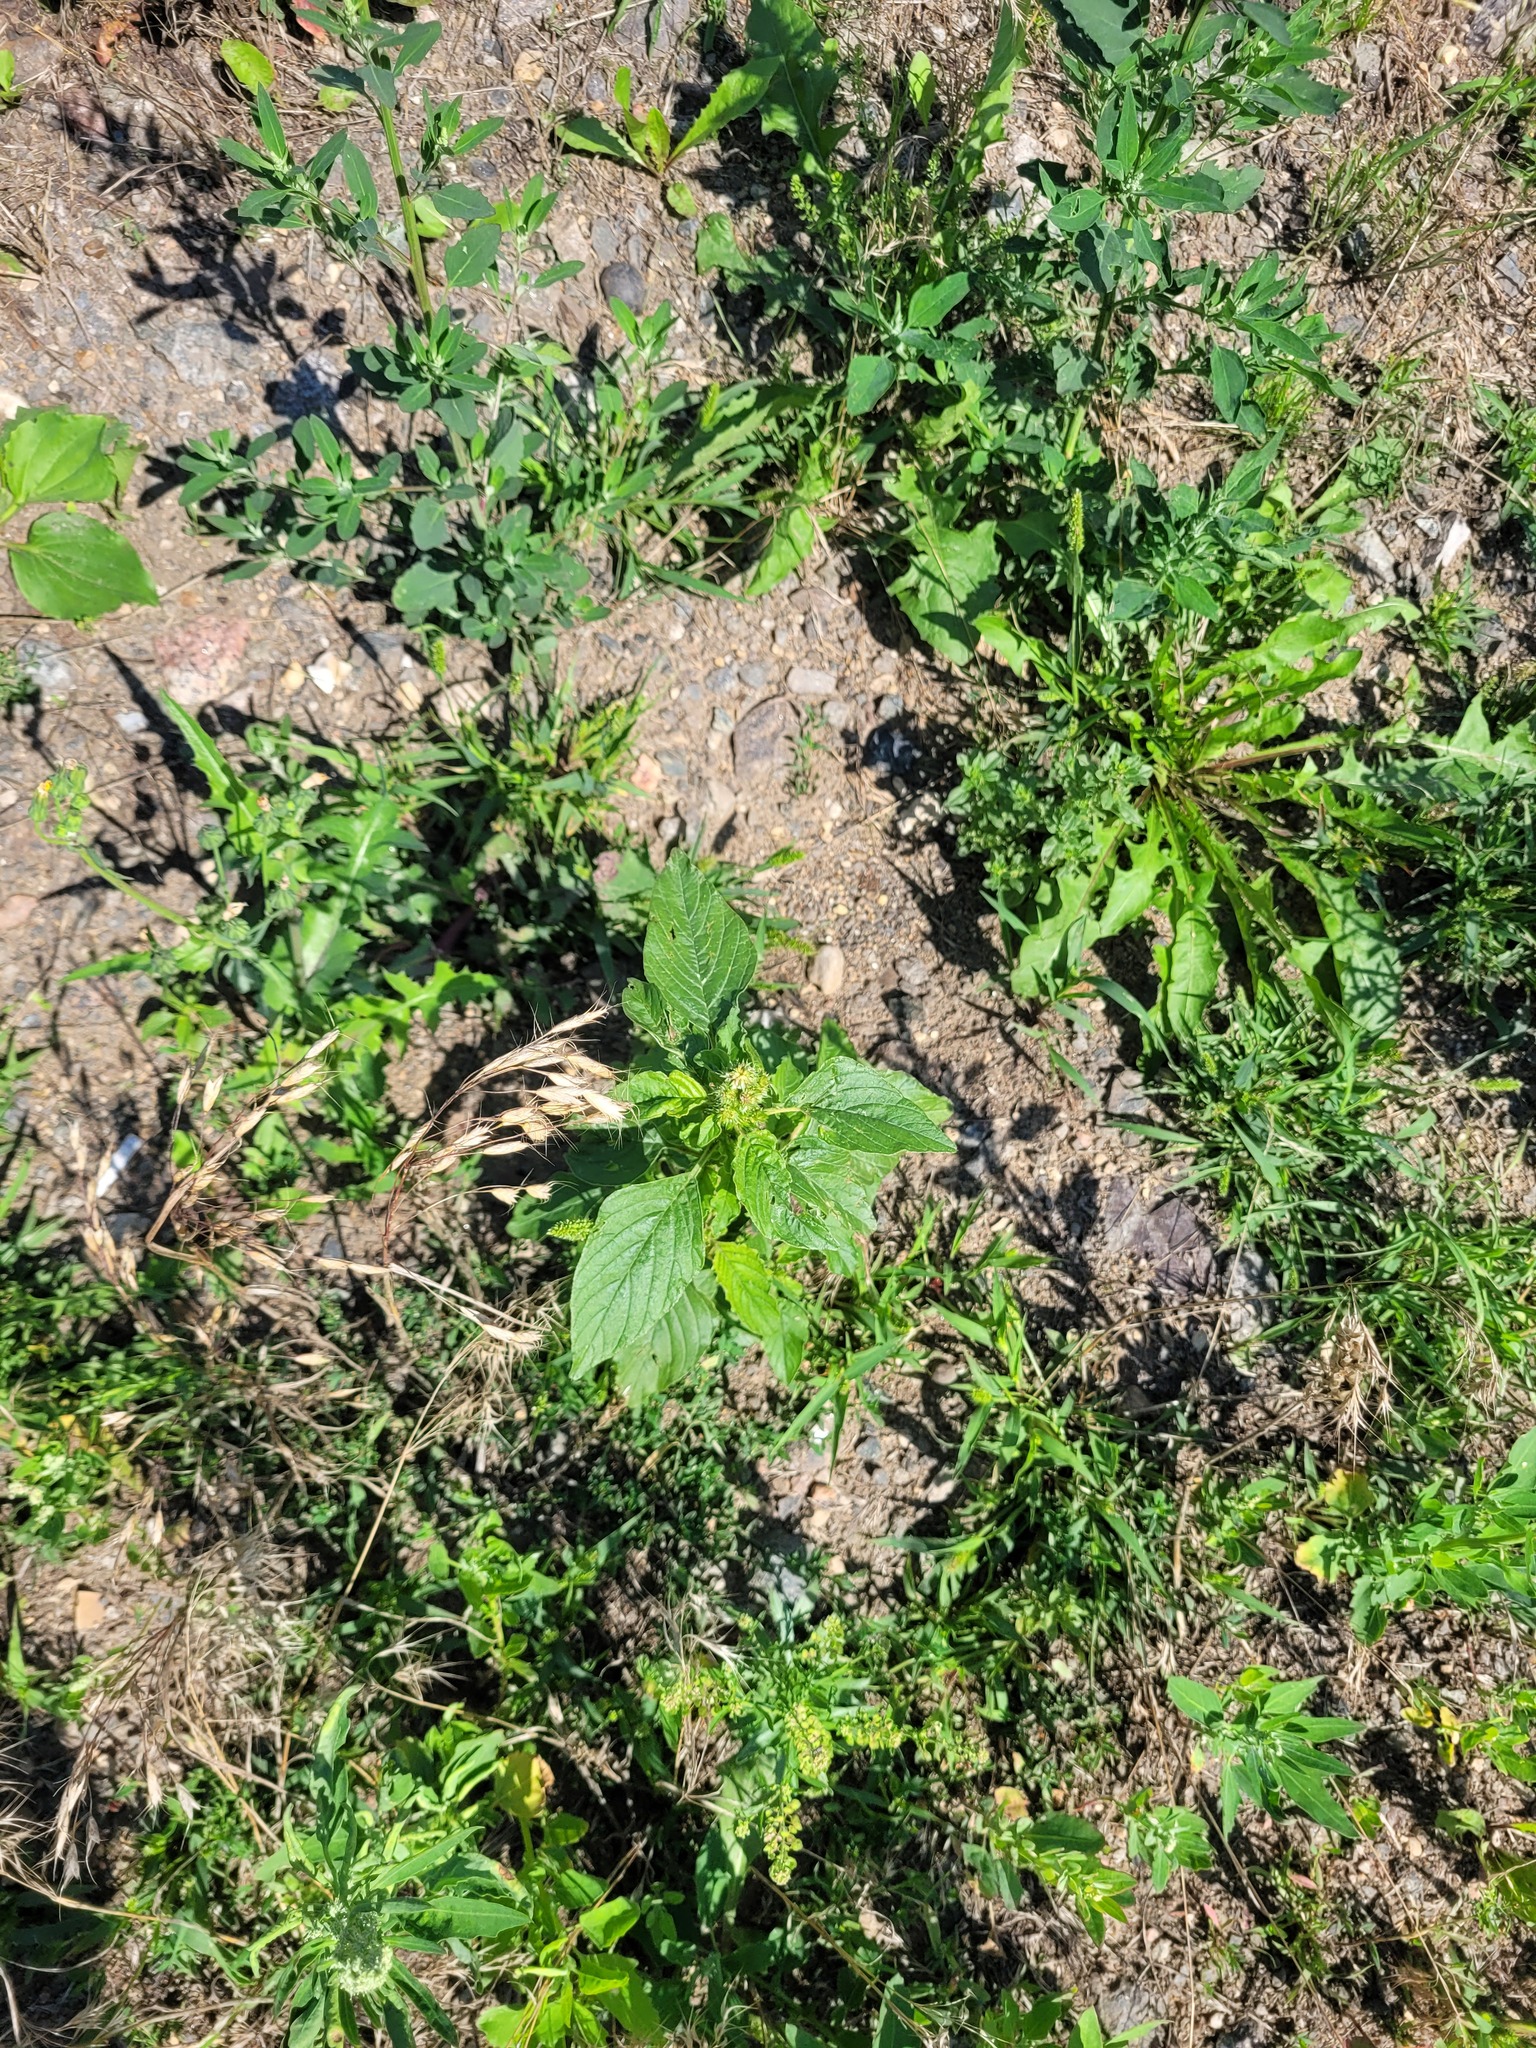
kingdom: Plantae
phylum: Tracheophyta
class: Magnoliopsida
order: Caryophyllales
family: Amaranthaceae
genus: Amaranthus
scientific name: Amaranthus retroflexus
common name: Redroot amaranth
